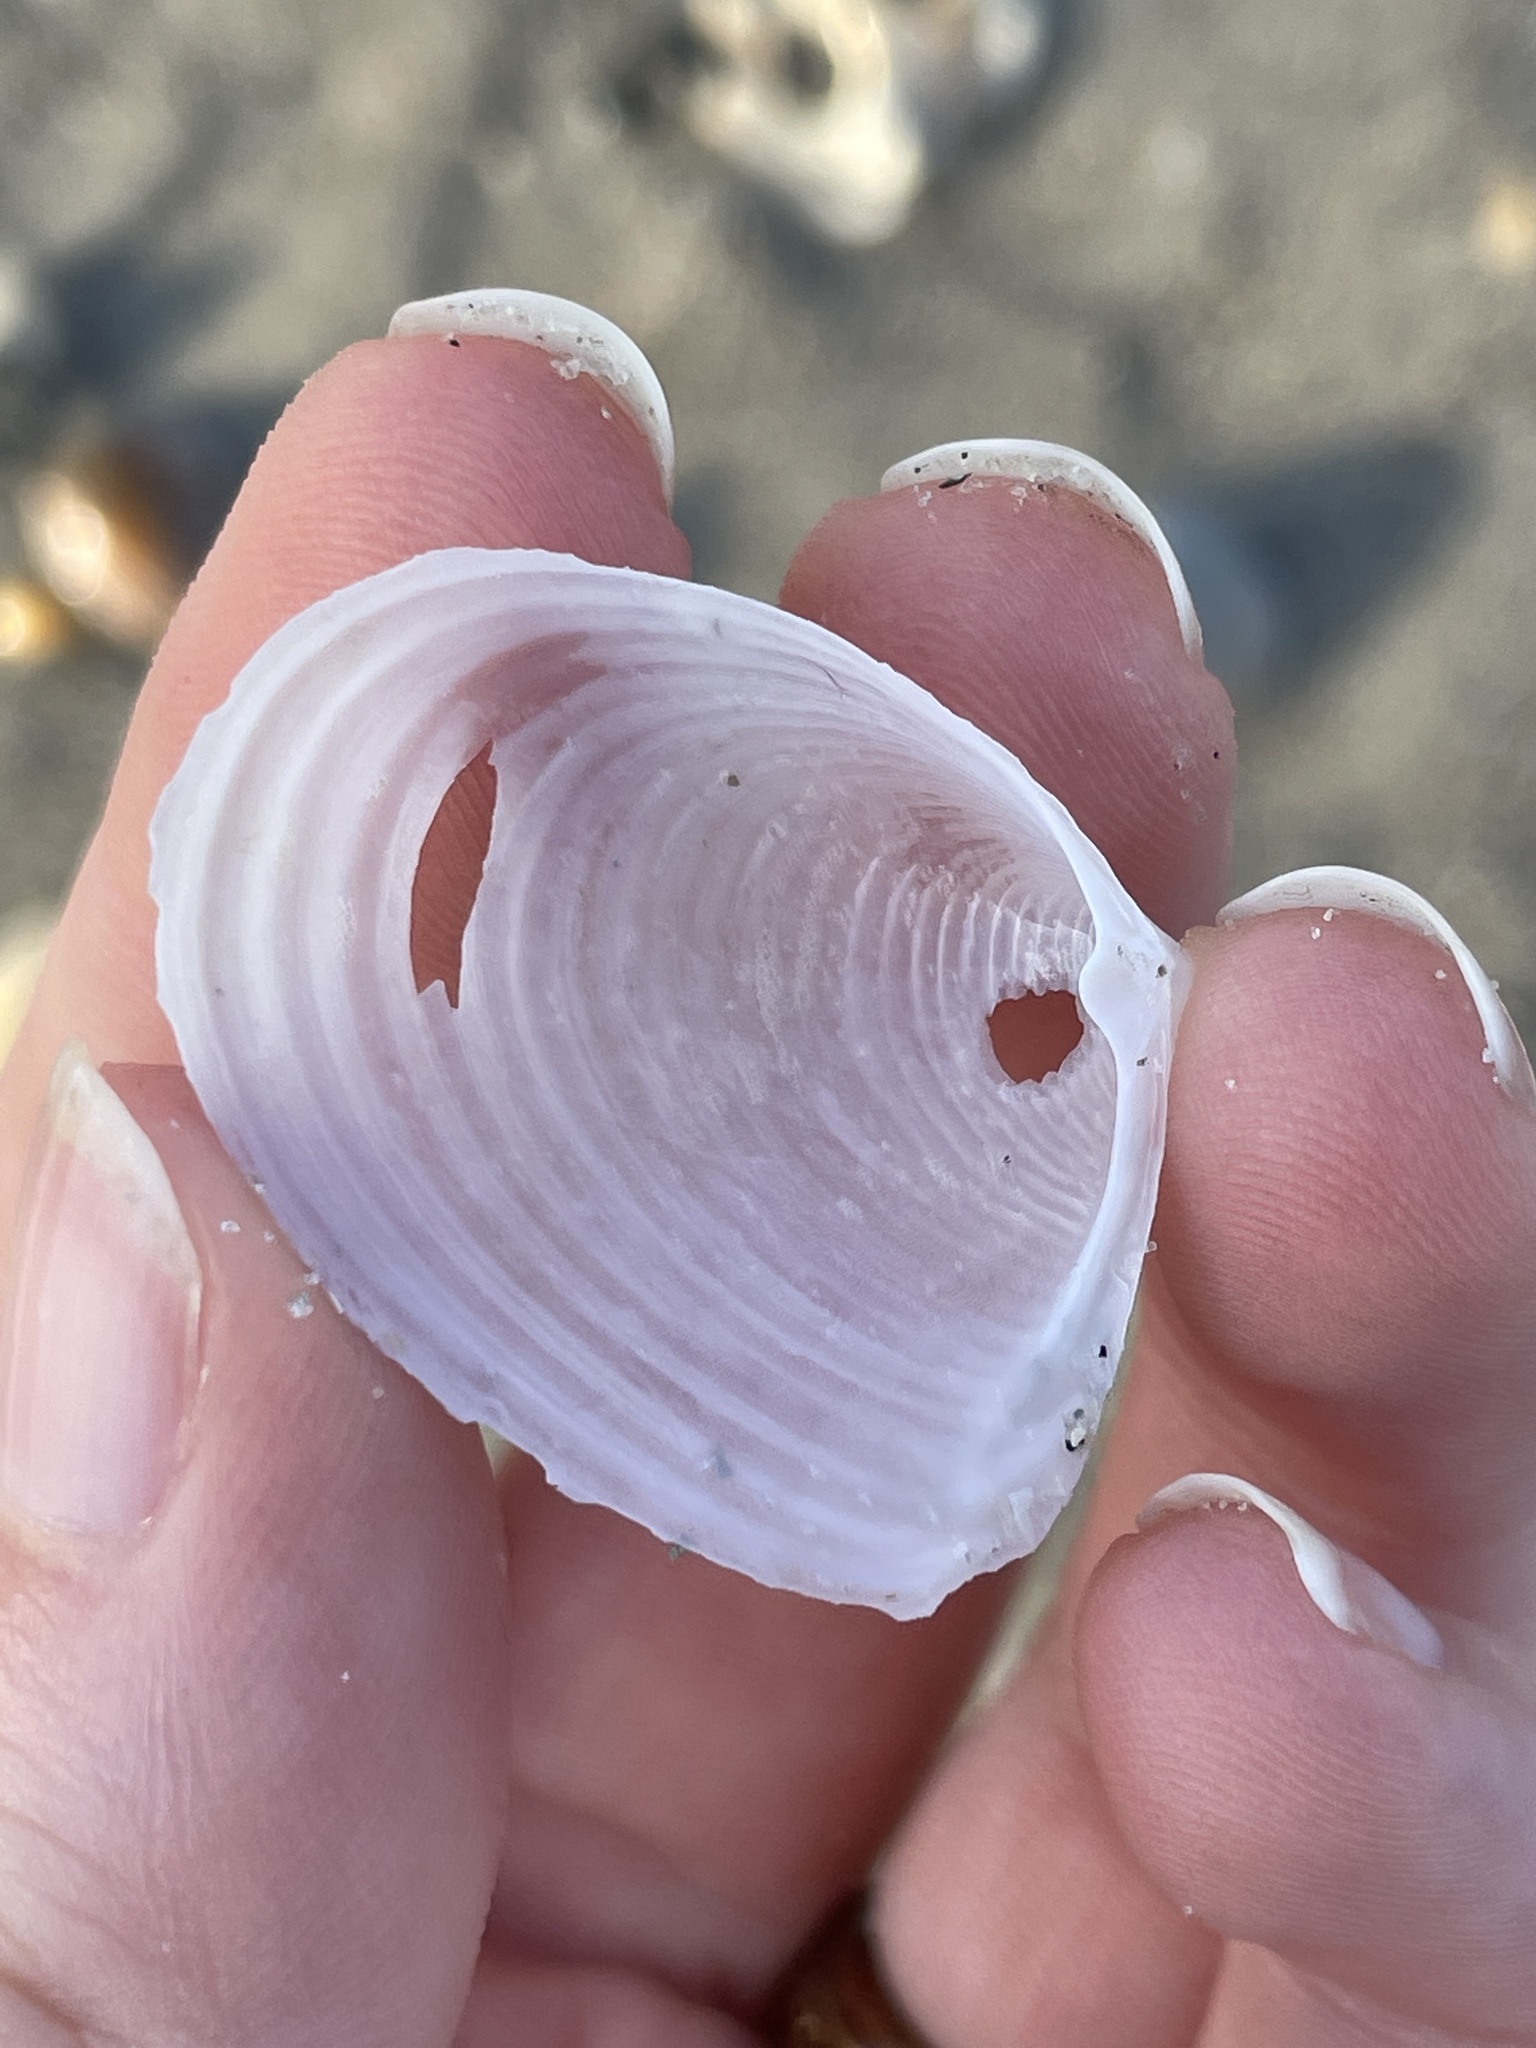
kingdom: Animalia
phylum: Mollusca
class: Bivalvia
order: Venerida
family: Anatinellidae
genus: Raeta
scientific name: Raeta plicatella
